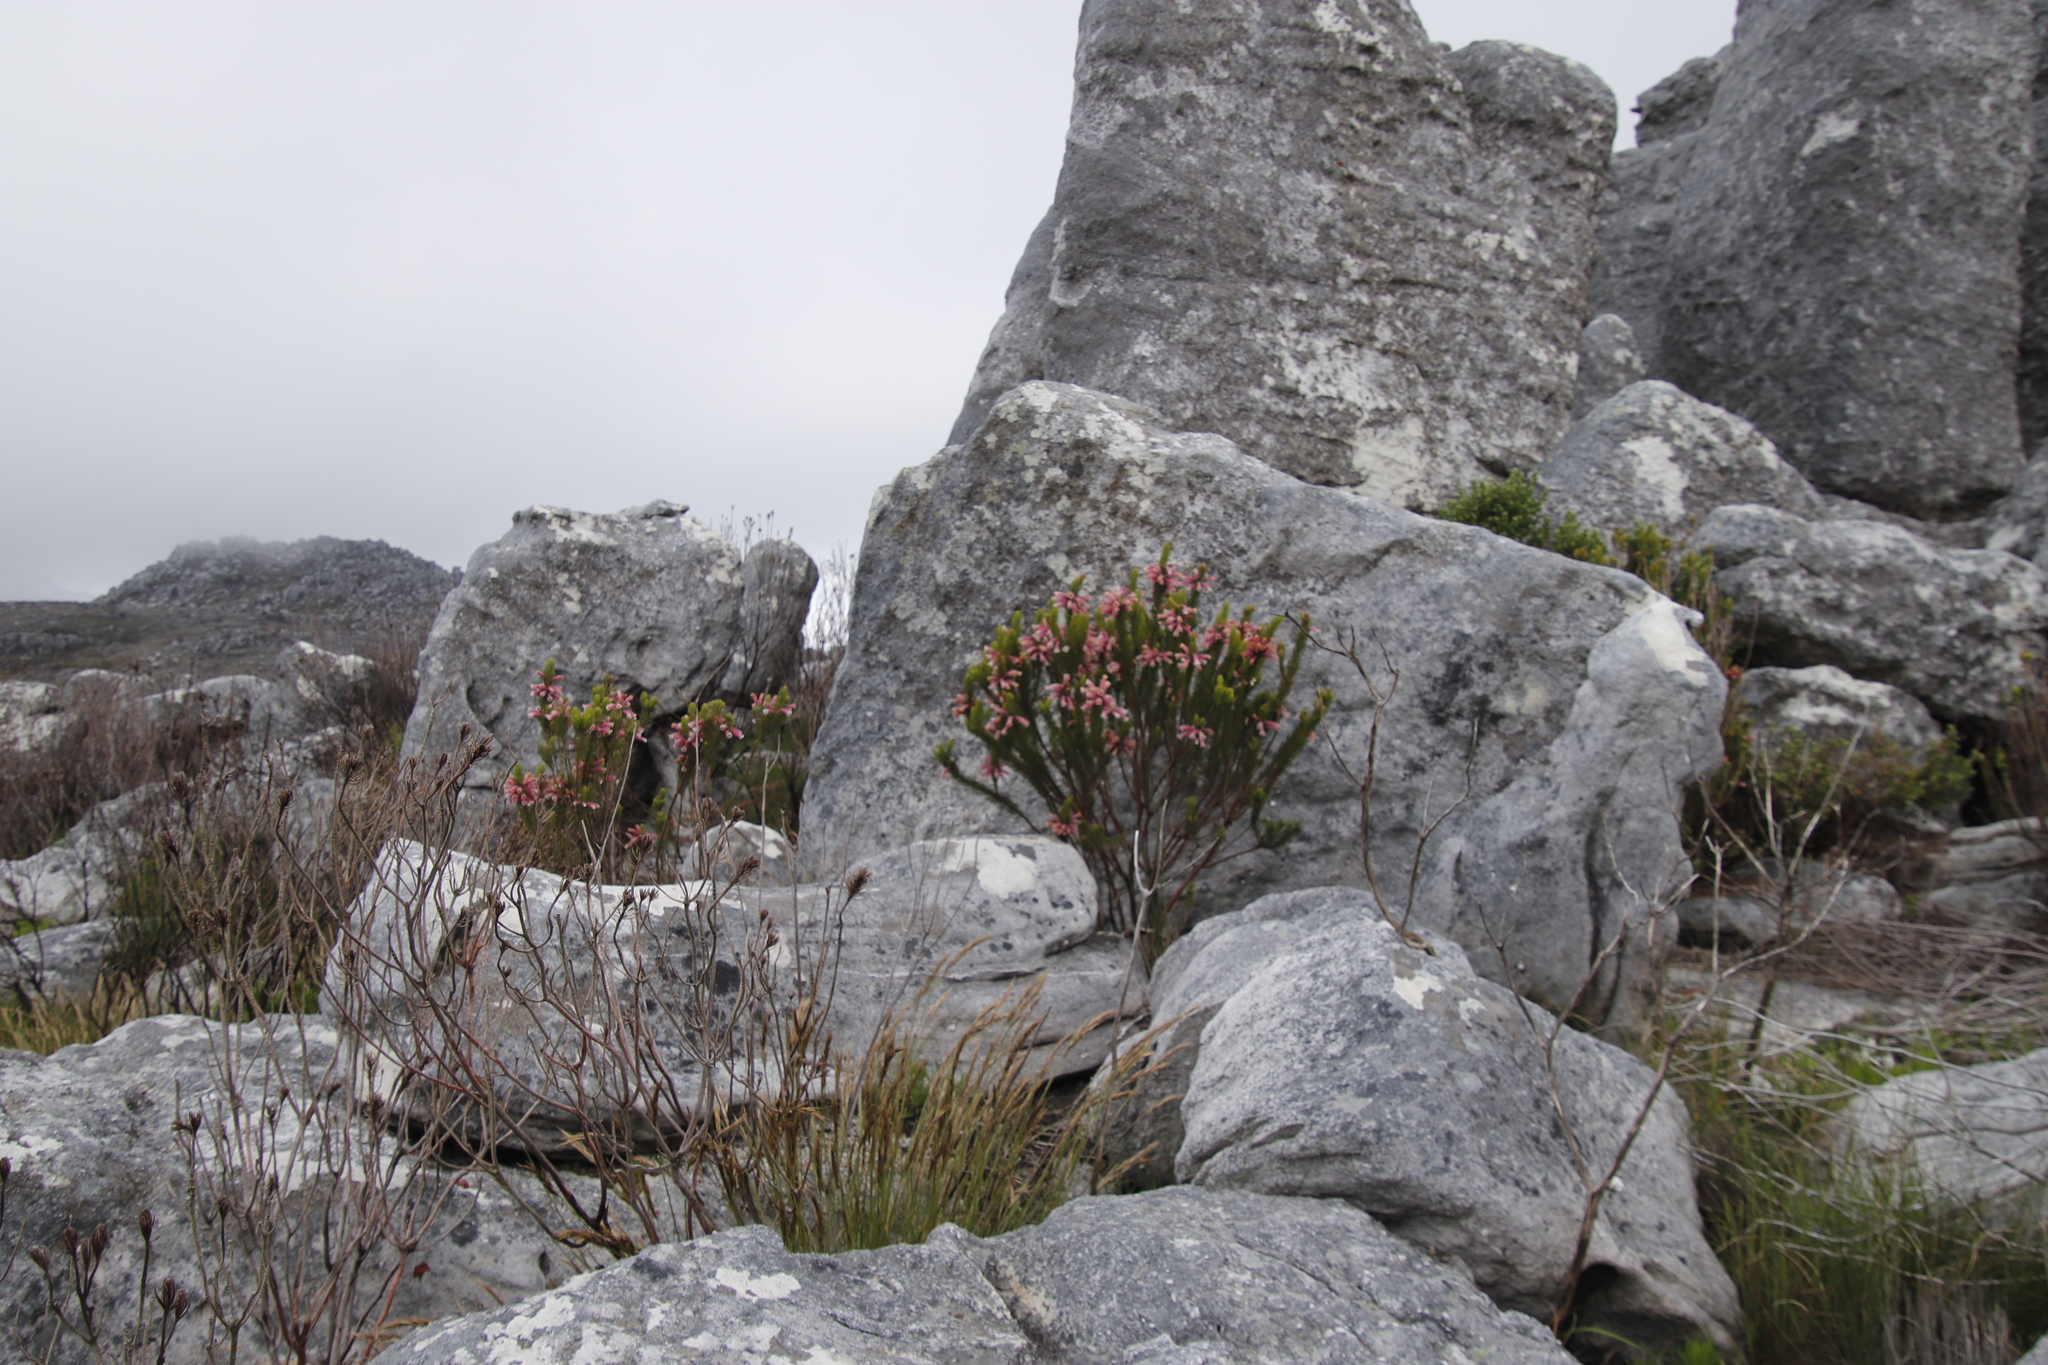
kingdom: Plantae
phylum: Tracheophyta
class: Magnoliopsida
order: Ericales
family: Ericaceae
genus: Erica
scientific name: Erica viscaria
